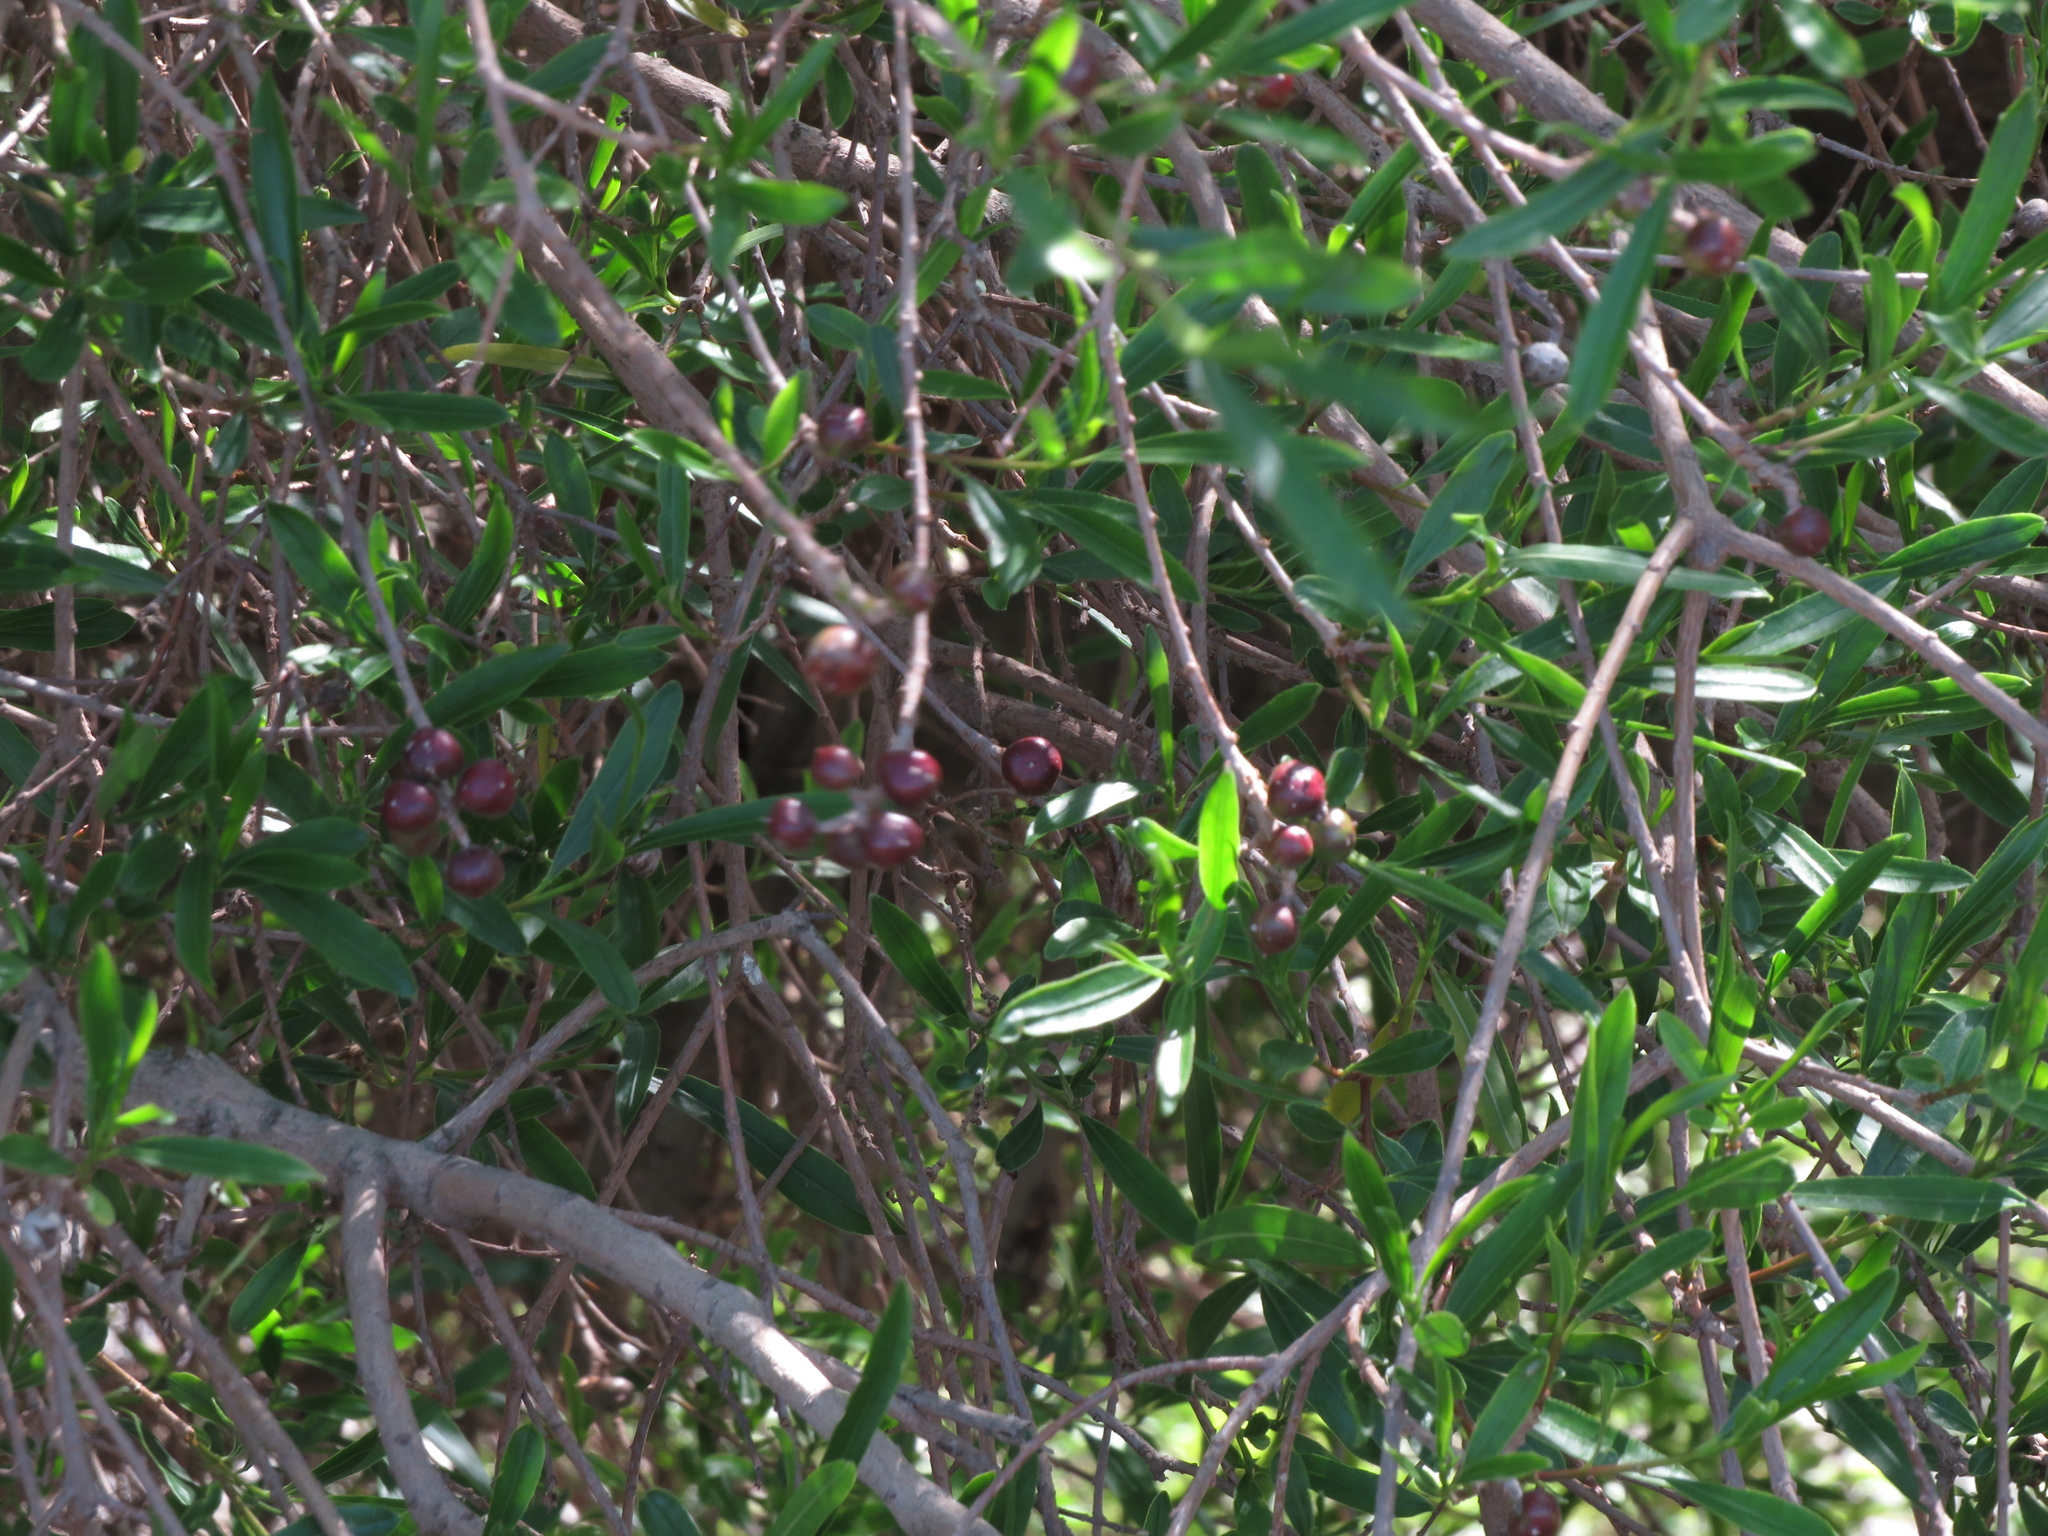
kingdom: Plantae
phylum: Tracheophyta
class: Magnoliopsida
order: Malpighiales
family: Euphorbiaceae
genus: Sapium
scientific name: Sapium haematospermum
